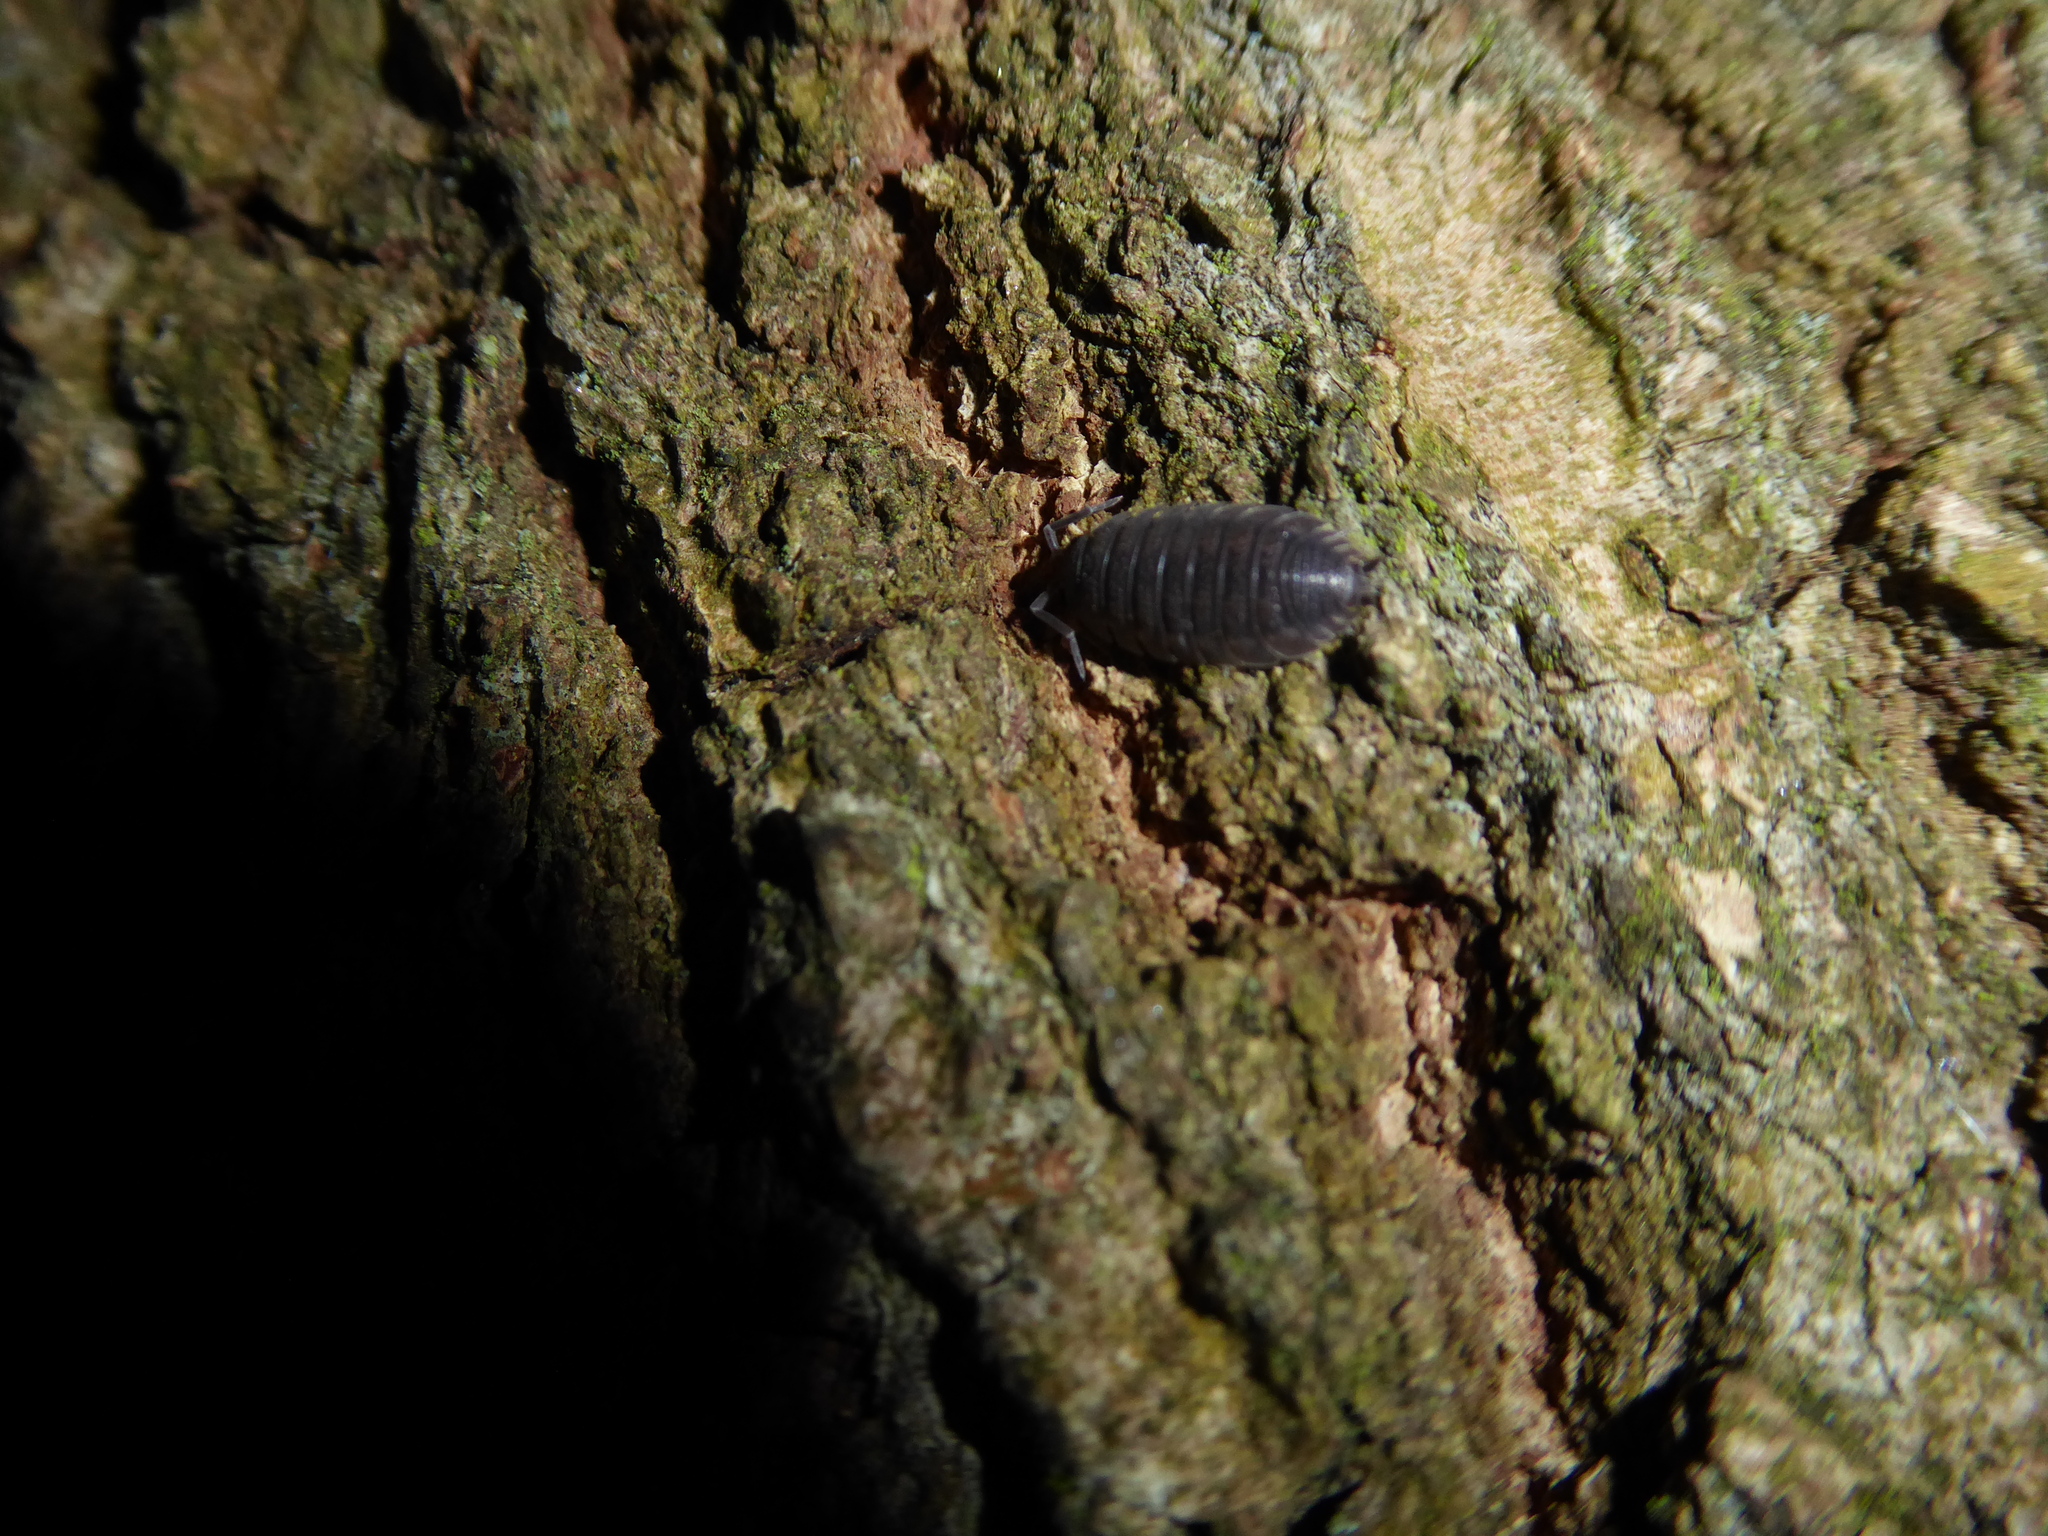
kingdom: Animalia
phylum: Arthropoda
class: Malacostraca
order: Isopoda
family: Porcellionidae
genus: Porcellio
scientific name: Porcellio scaber
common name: Common rough woodlouse
